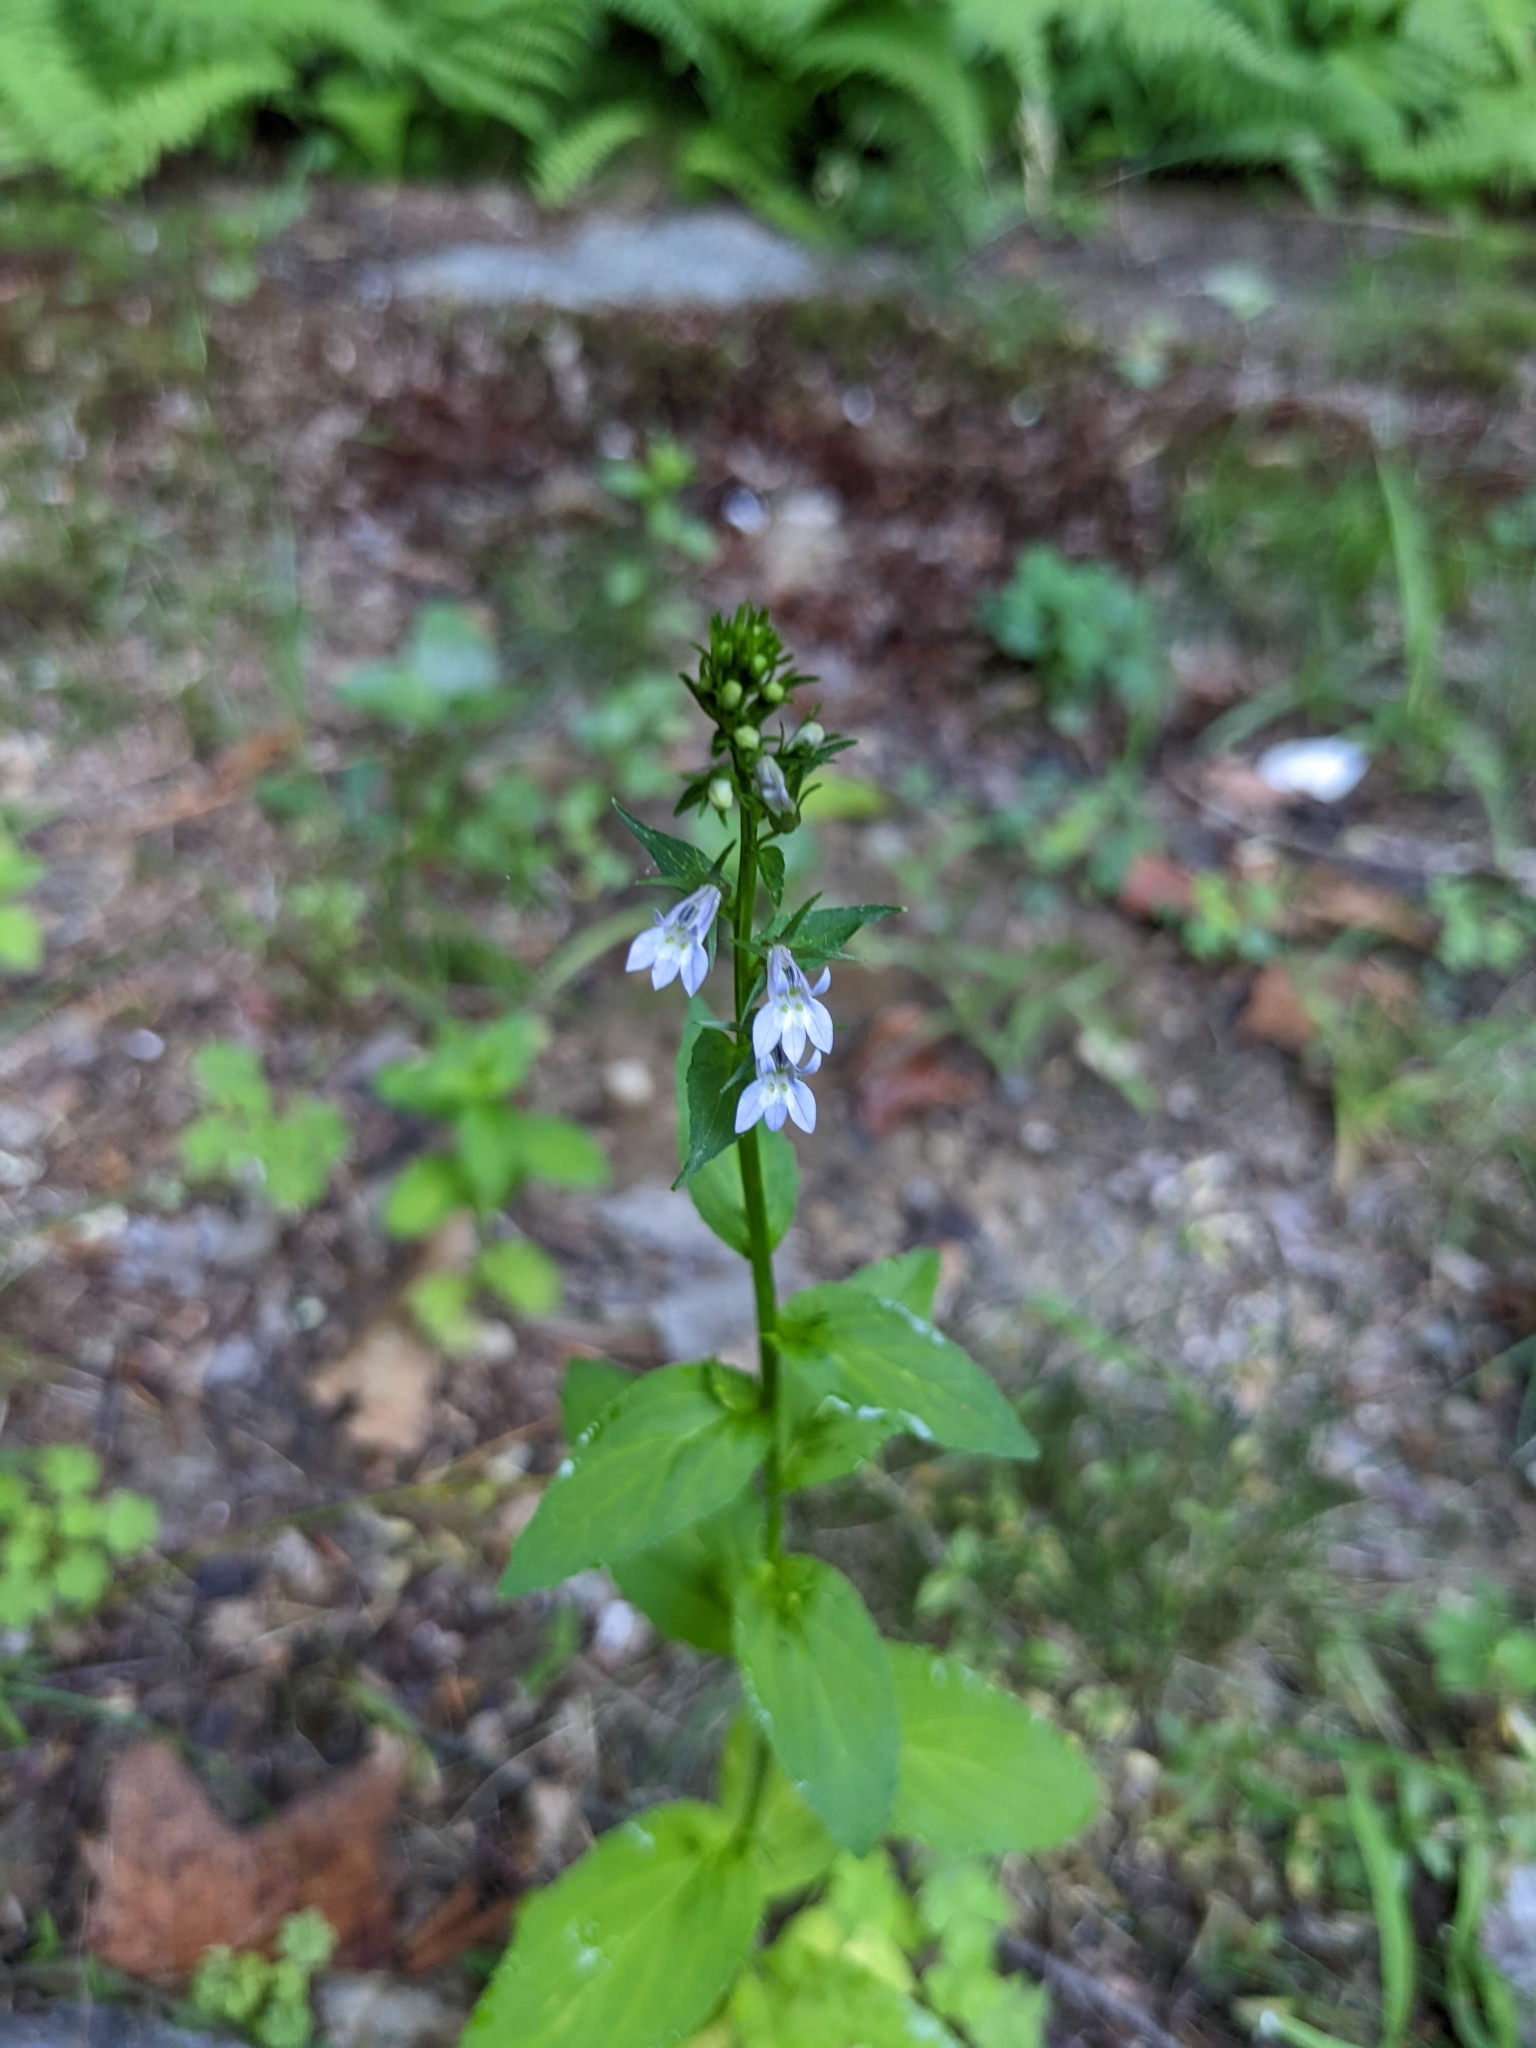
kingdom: Plantae
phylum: Tracheophyta
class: Magnoliopsida
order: Asterales
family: Campanulaceae
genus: Lobelia
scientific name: Lobelia inflata
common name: Indian tobacco
